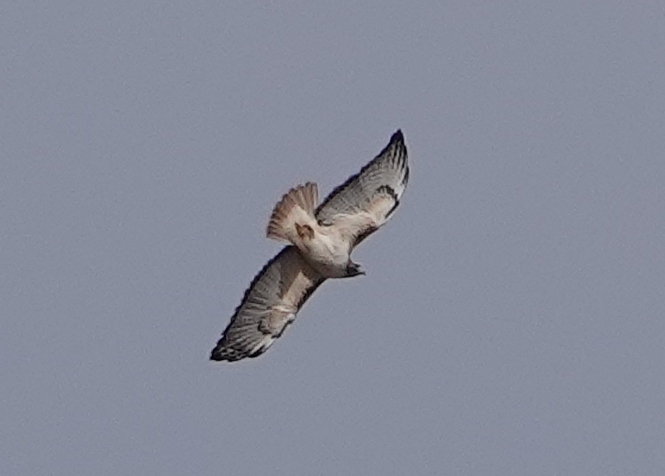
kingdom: Animalia
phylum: Chordata
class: Aves
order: Accipitriformes
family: Accipitridae
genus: Buteo
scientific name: Buteo jamaicensis
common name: Red-tailed hawk
